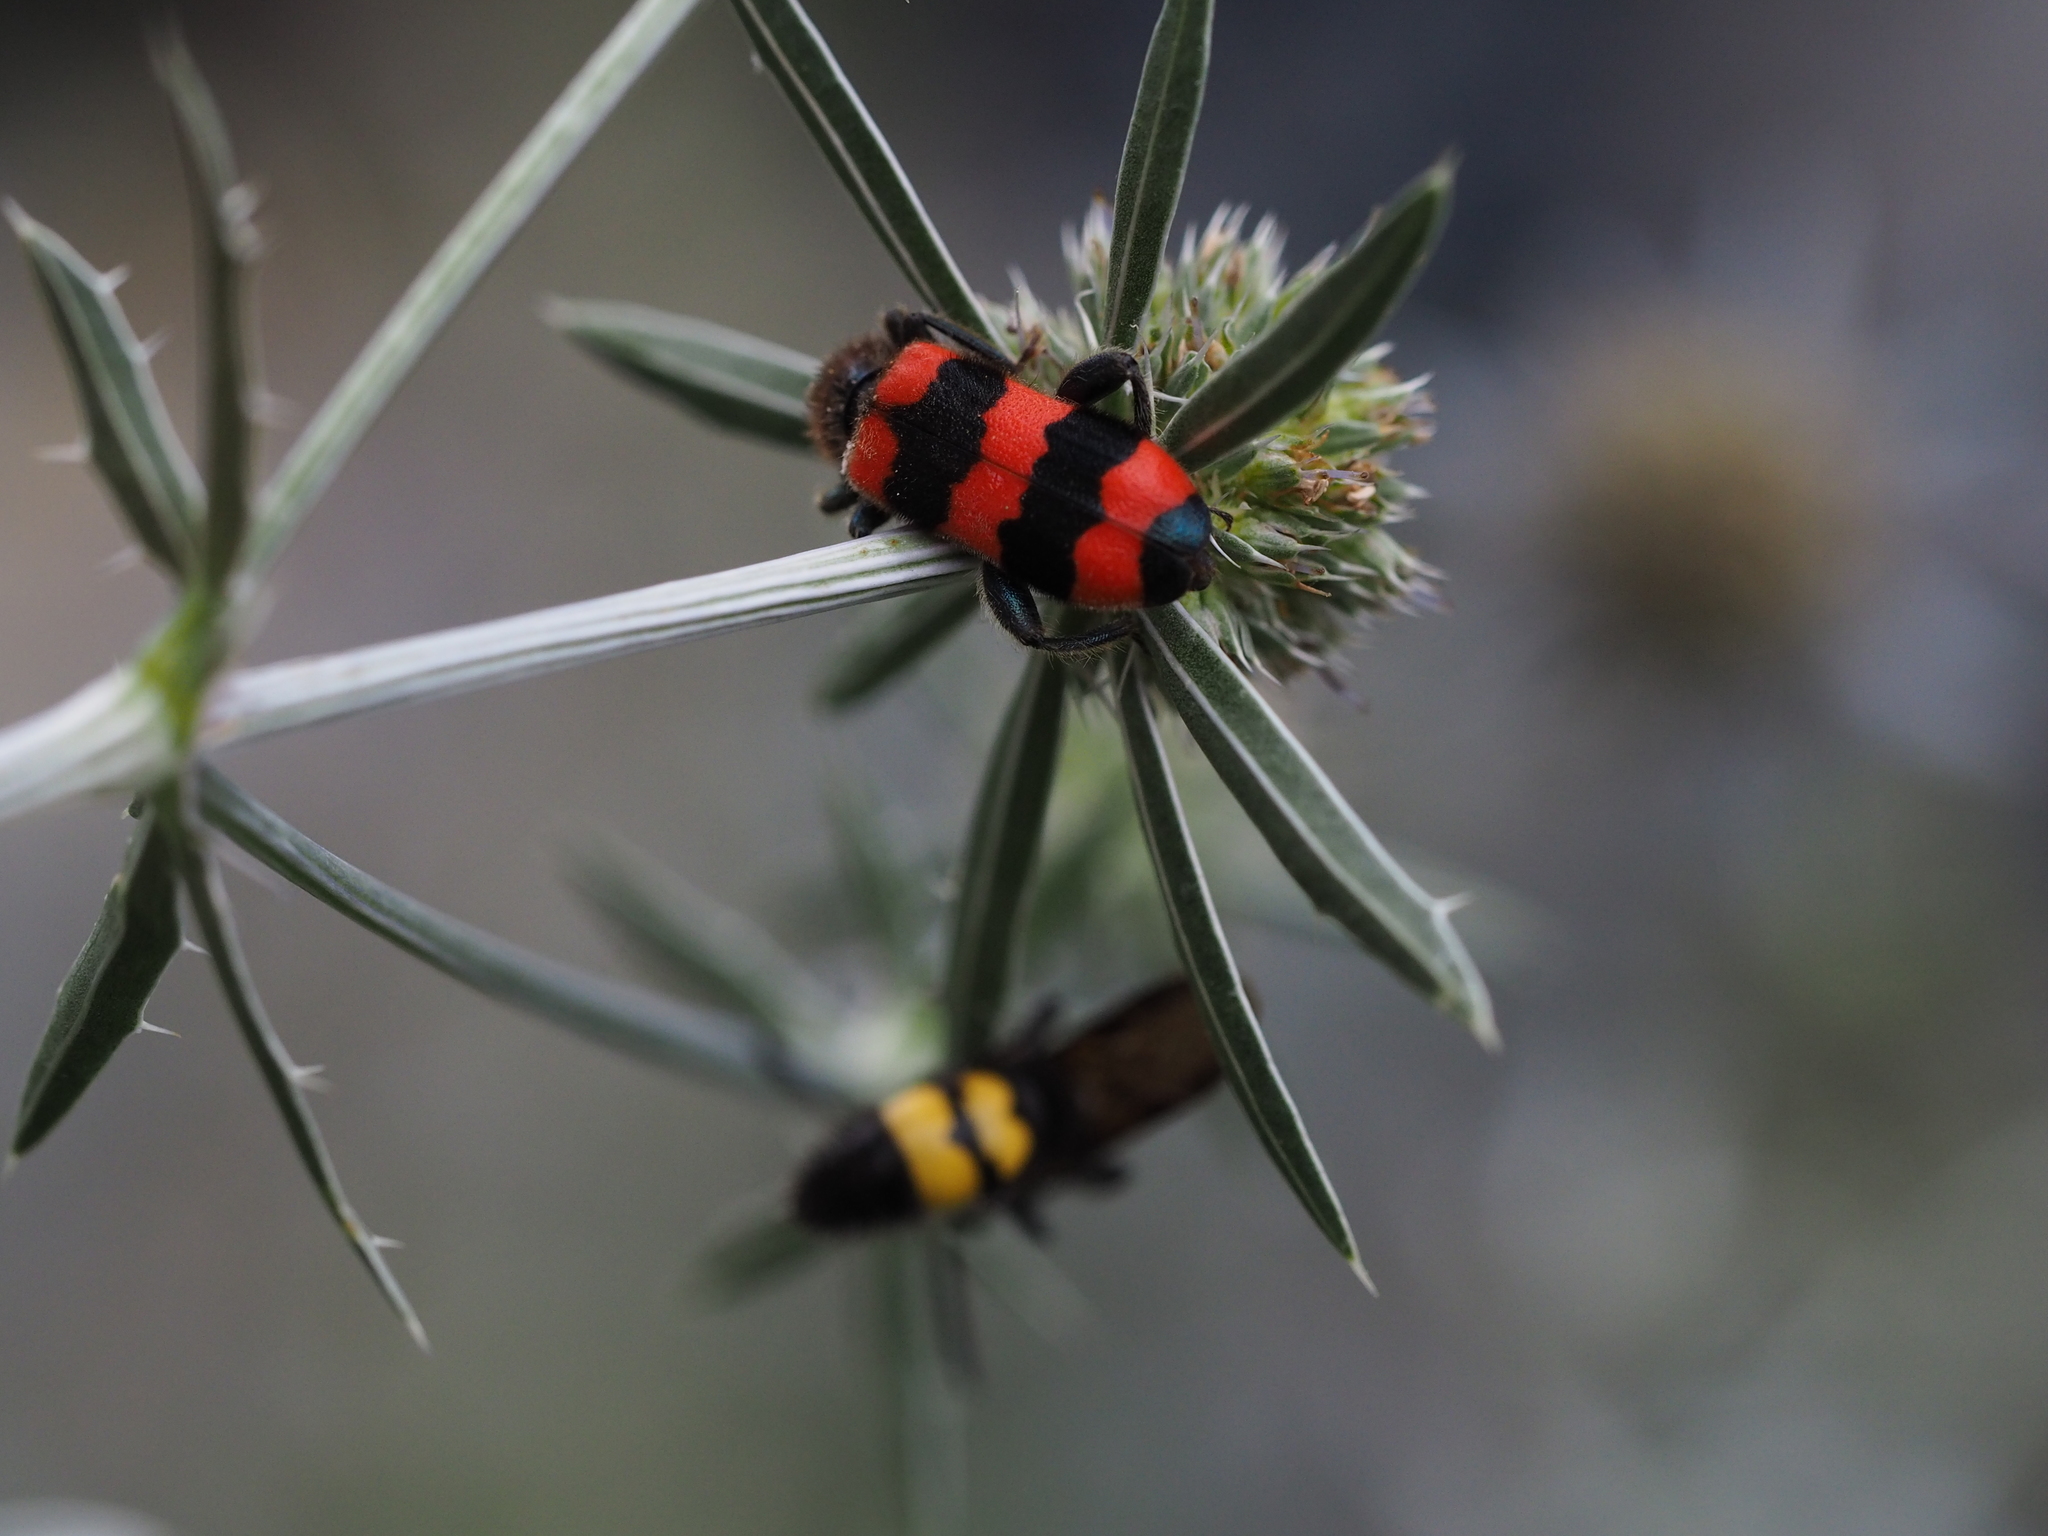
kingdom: Animalia
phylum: Arthropoda
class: Insecta
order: Coleoptera
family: Cleridae
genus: Trichodes
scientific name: Trichodes apiarius
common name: Bee-eating beetle
